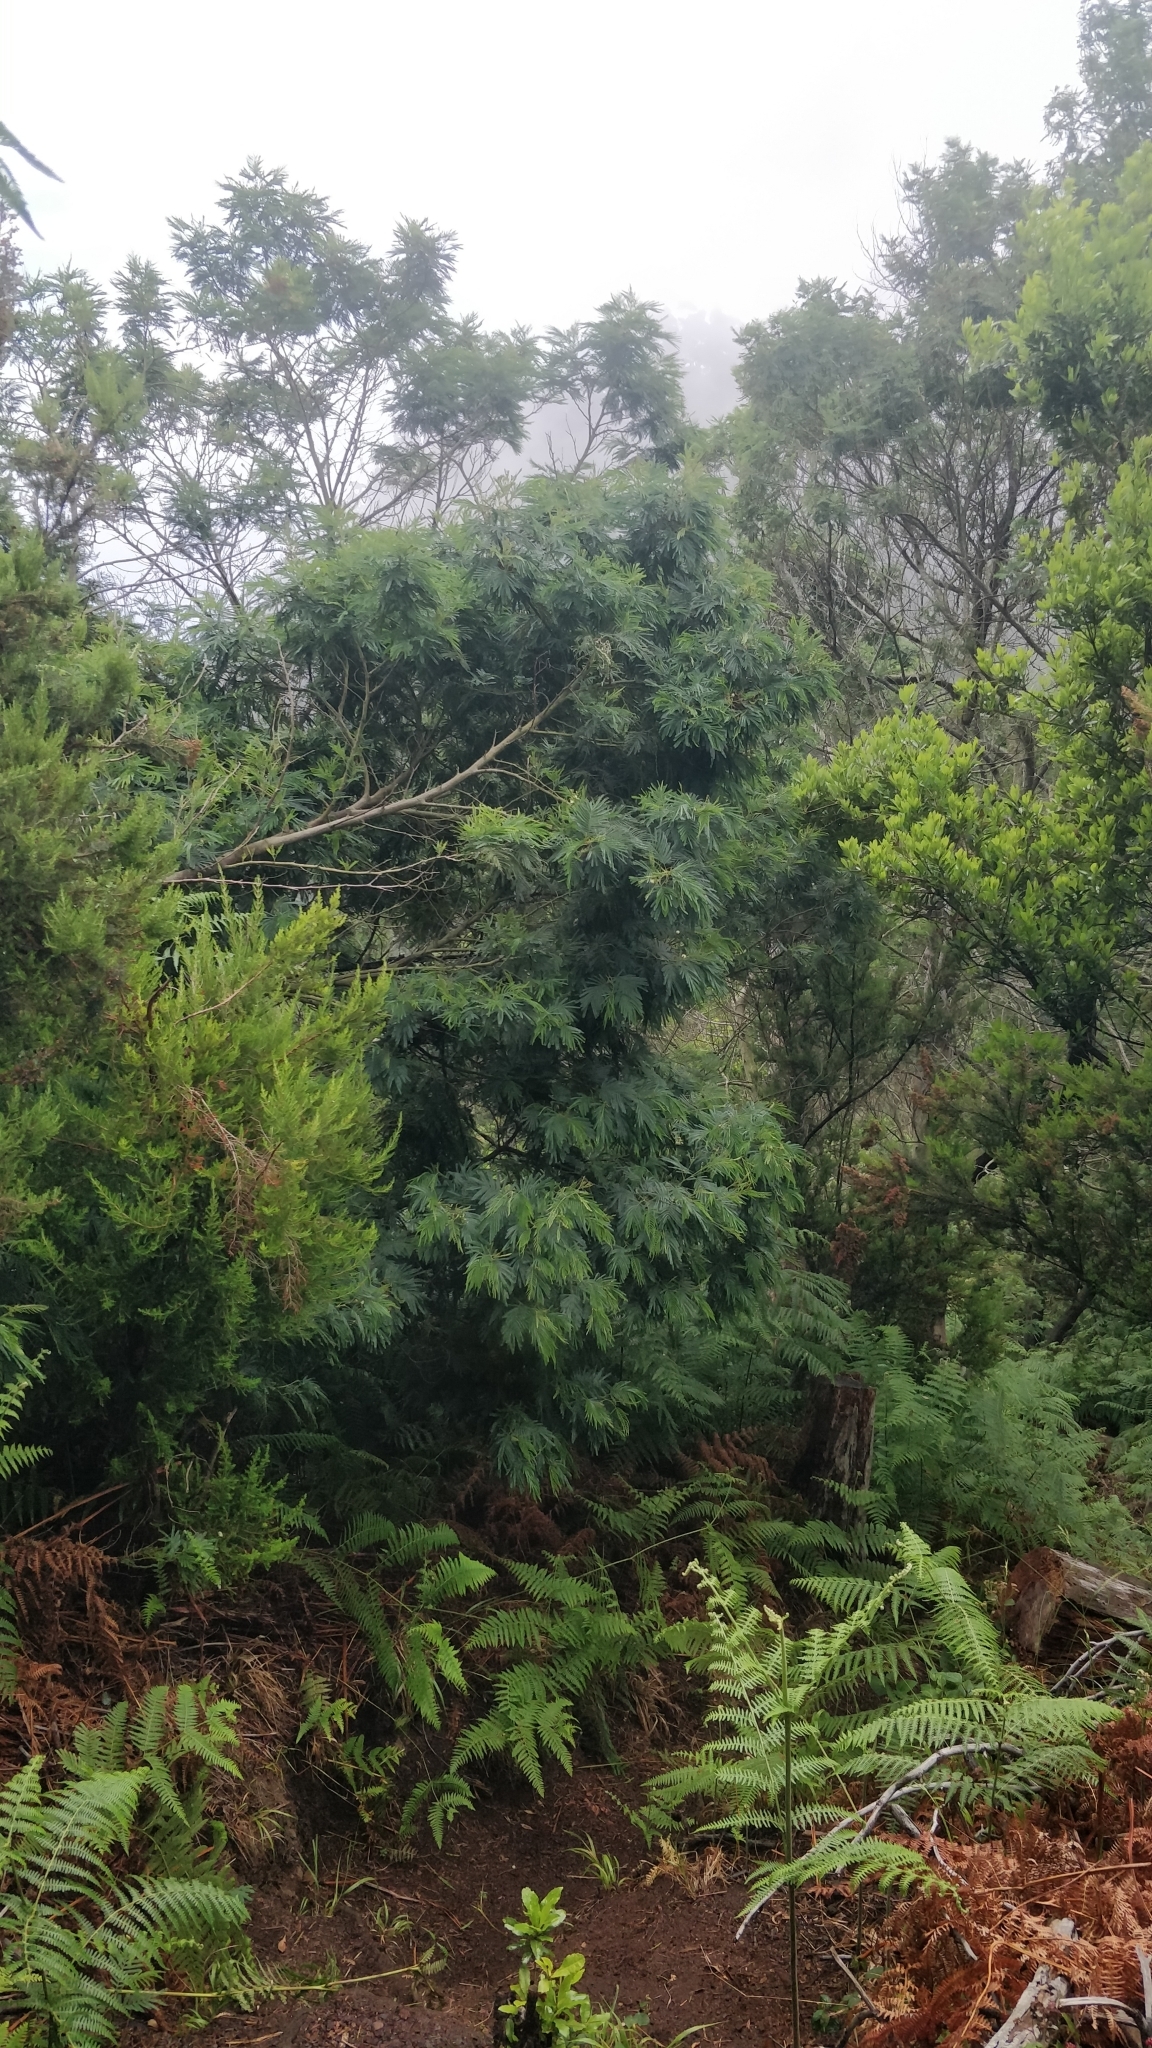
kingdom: Plantae
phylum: Tracheophyta
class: Magnoliopsida
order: Fabales
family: Fabaceae
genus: Acacia
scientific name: Acacia mearnsii
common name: Black wattle
